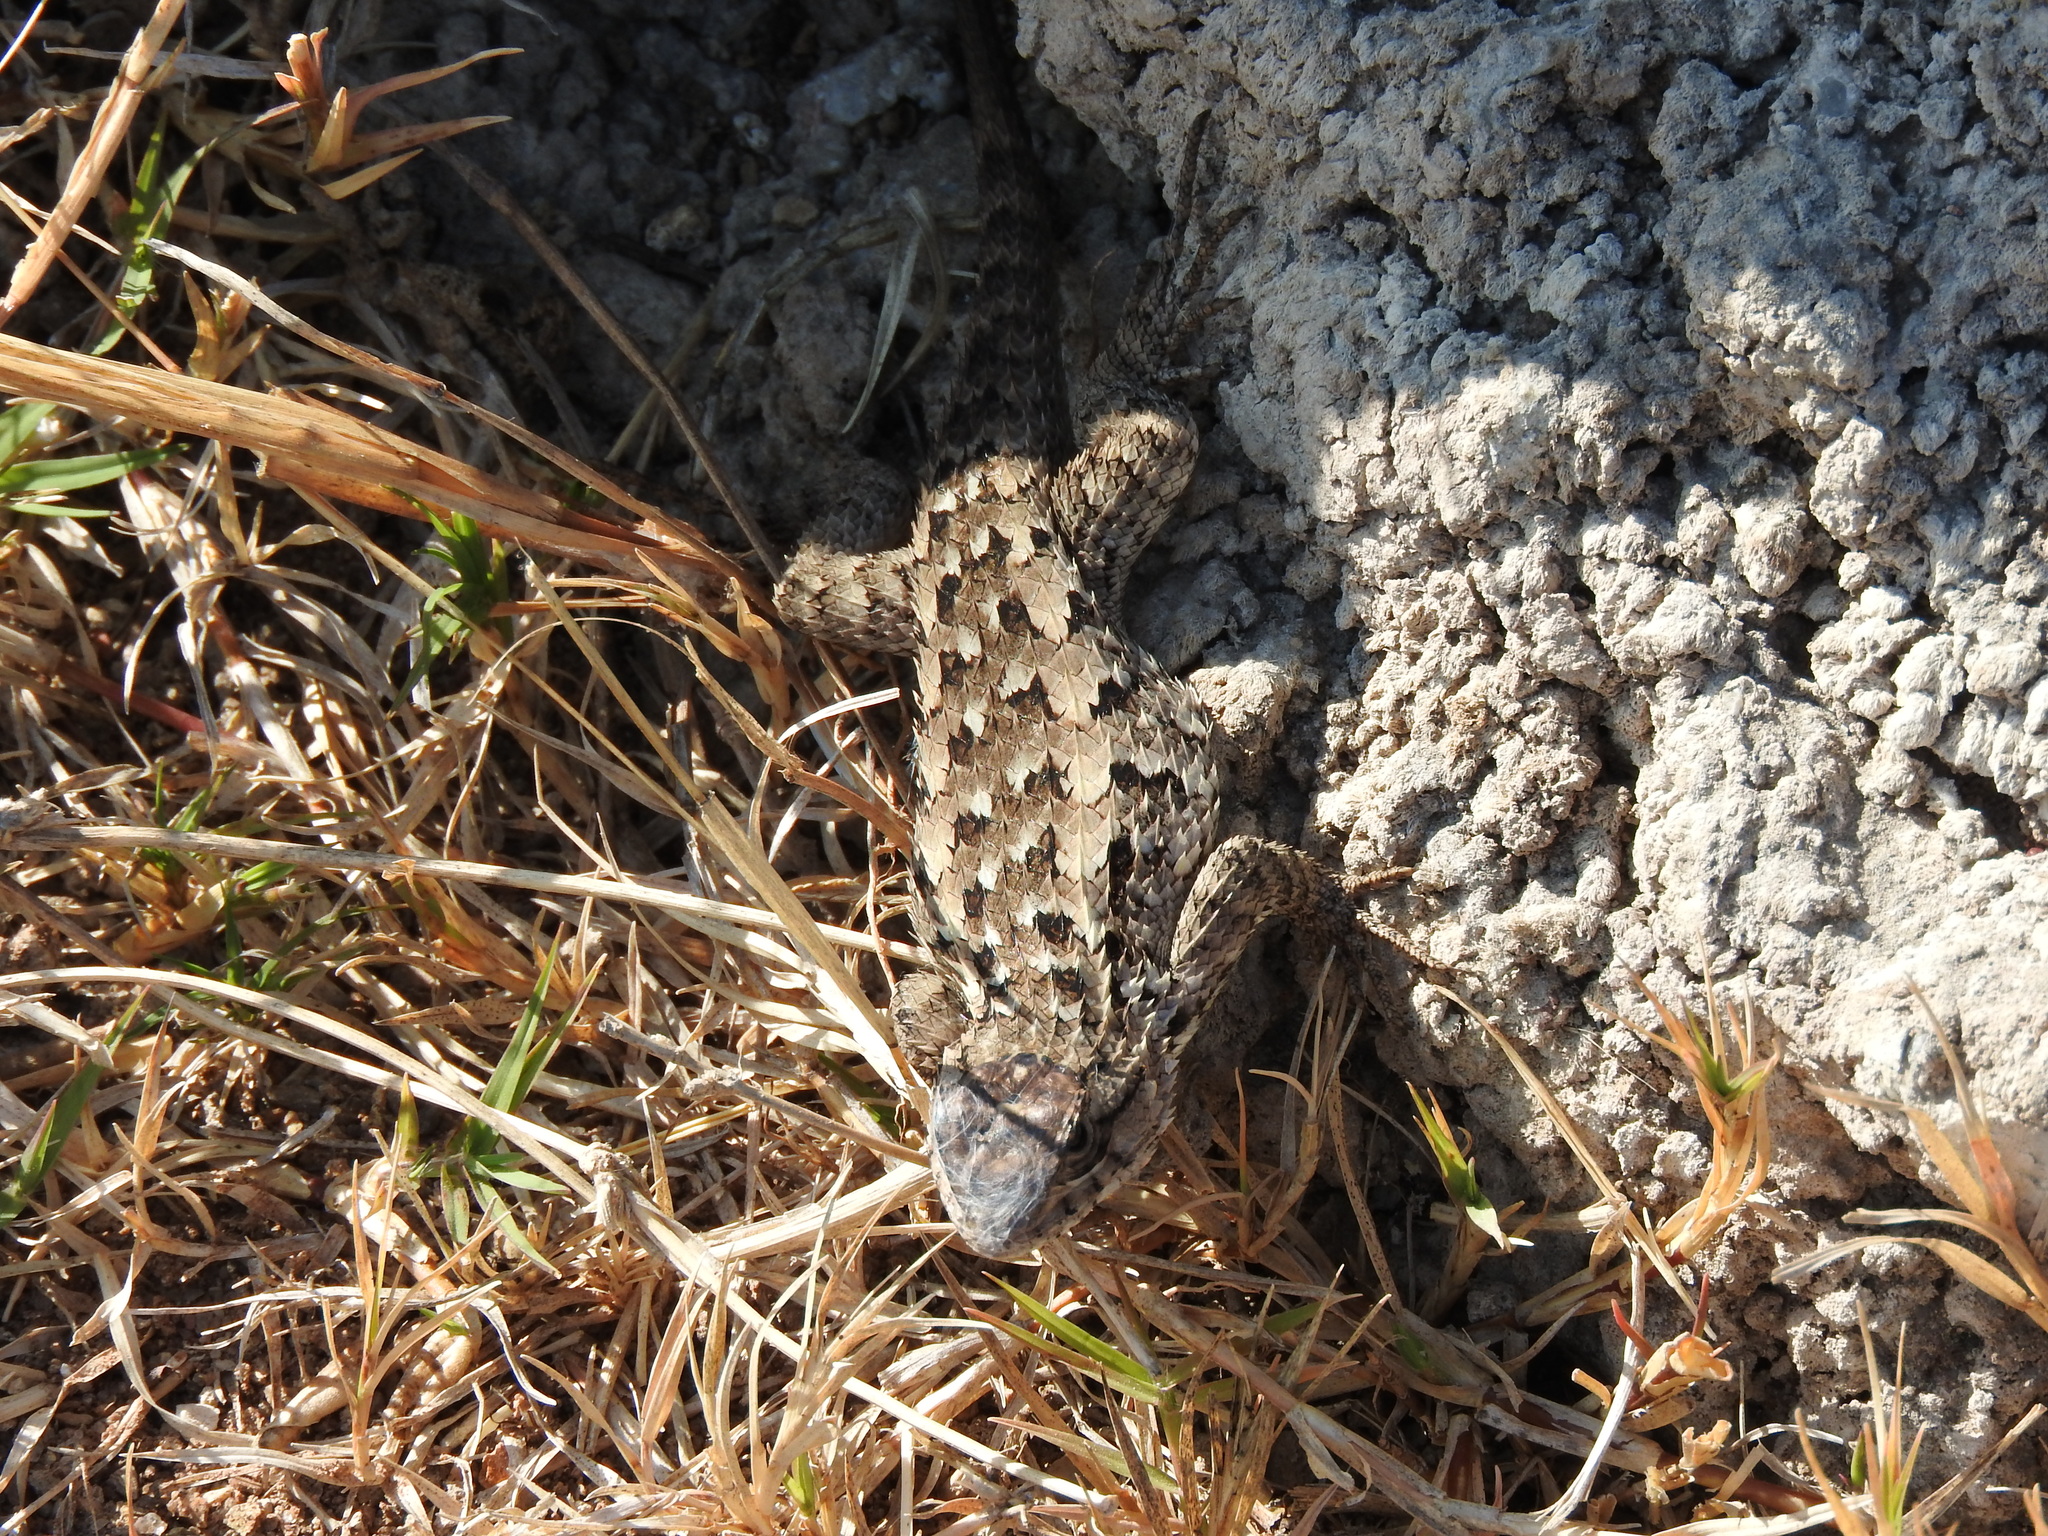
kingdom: Animalia
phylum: Chordata
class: Squamata
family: Phrynosomatidae
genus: Sceloporus
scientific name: Sceloporus spinosus
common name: Blue-spotted spiny lizard [caeruleopunctatus]
